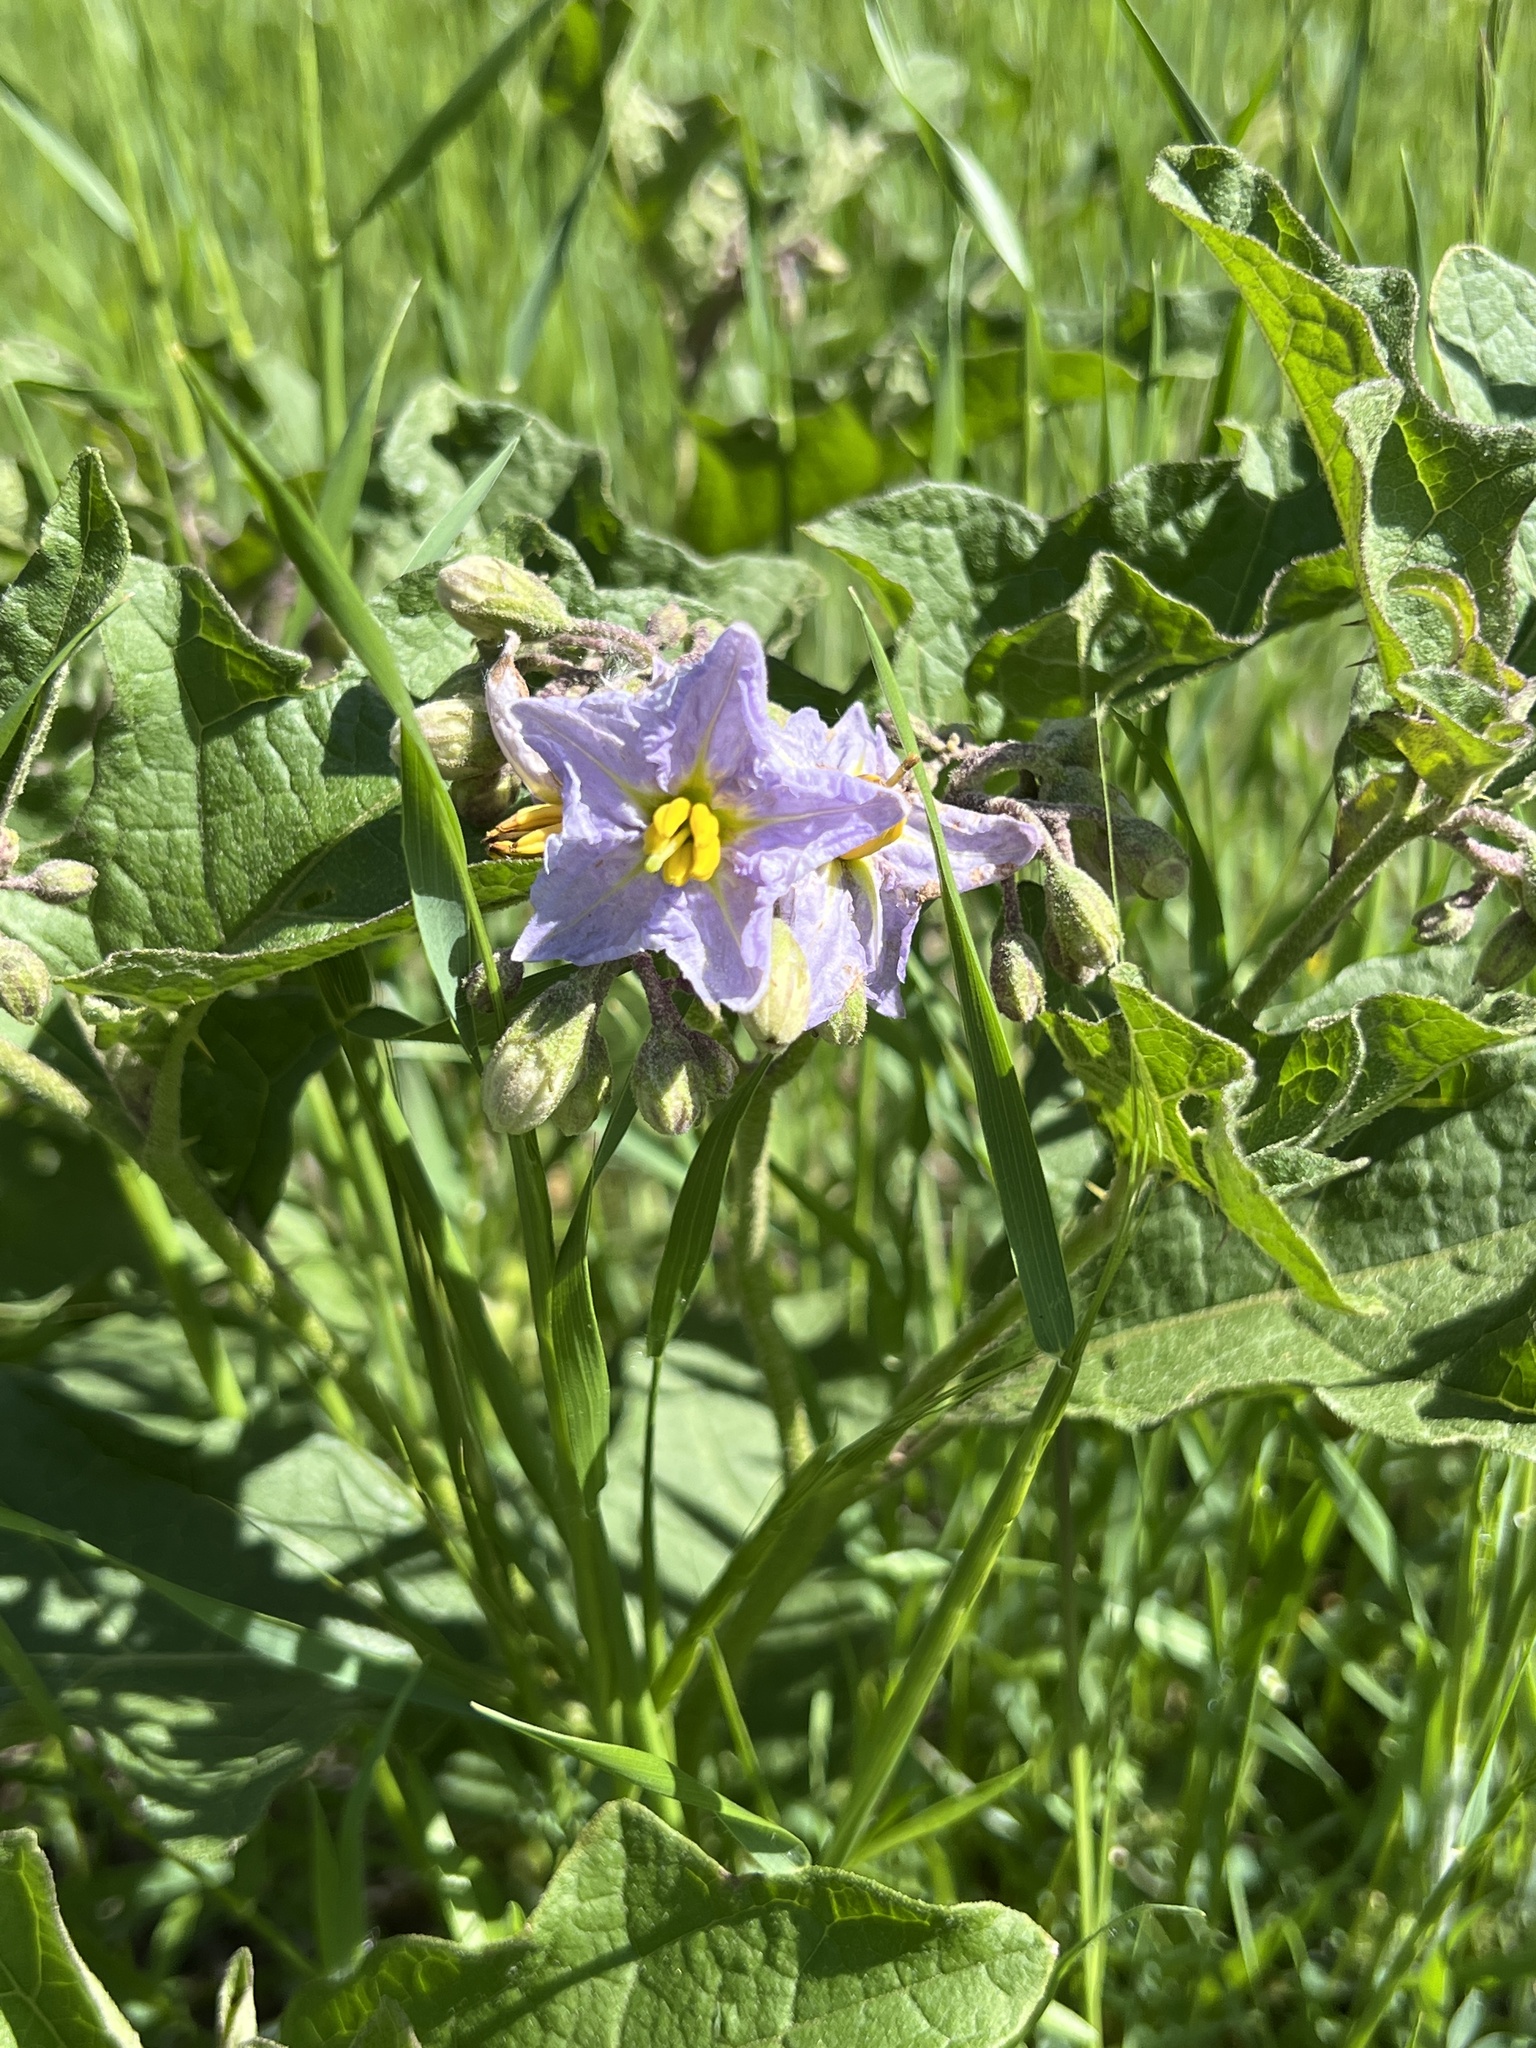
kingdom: Plantae
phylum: Tracheophyta
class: Magnoliopsida
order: Solanales
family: Solanaceae
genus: Solanum
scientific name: Solanum dimidiatum
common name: Carolina horse-nettle
